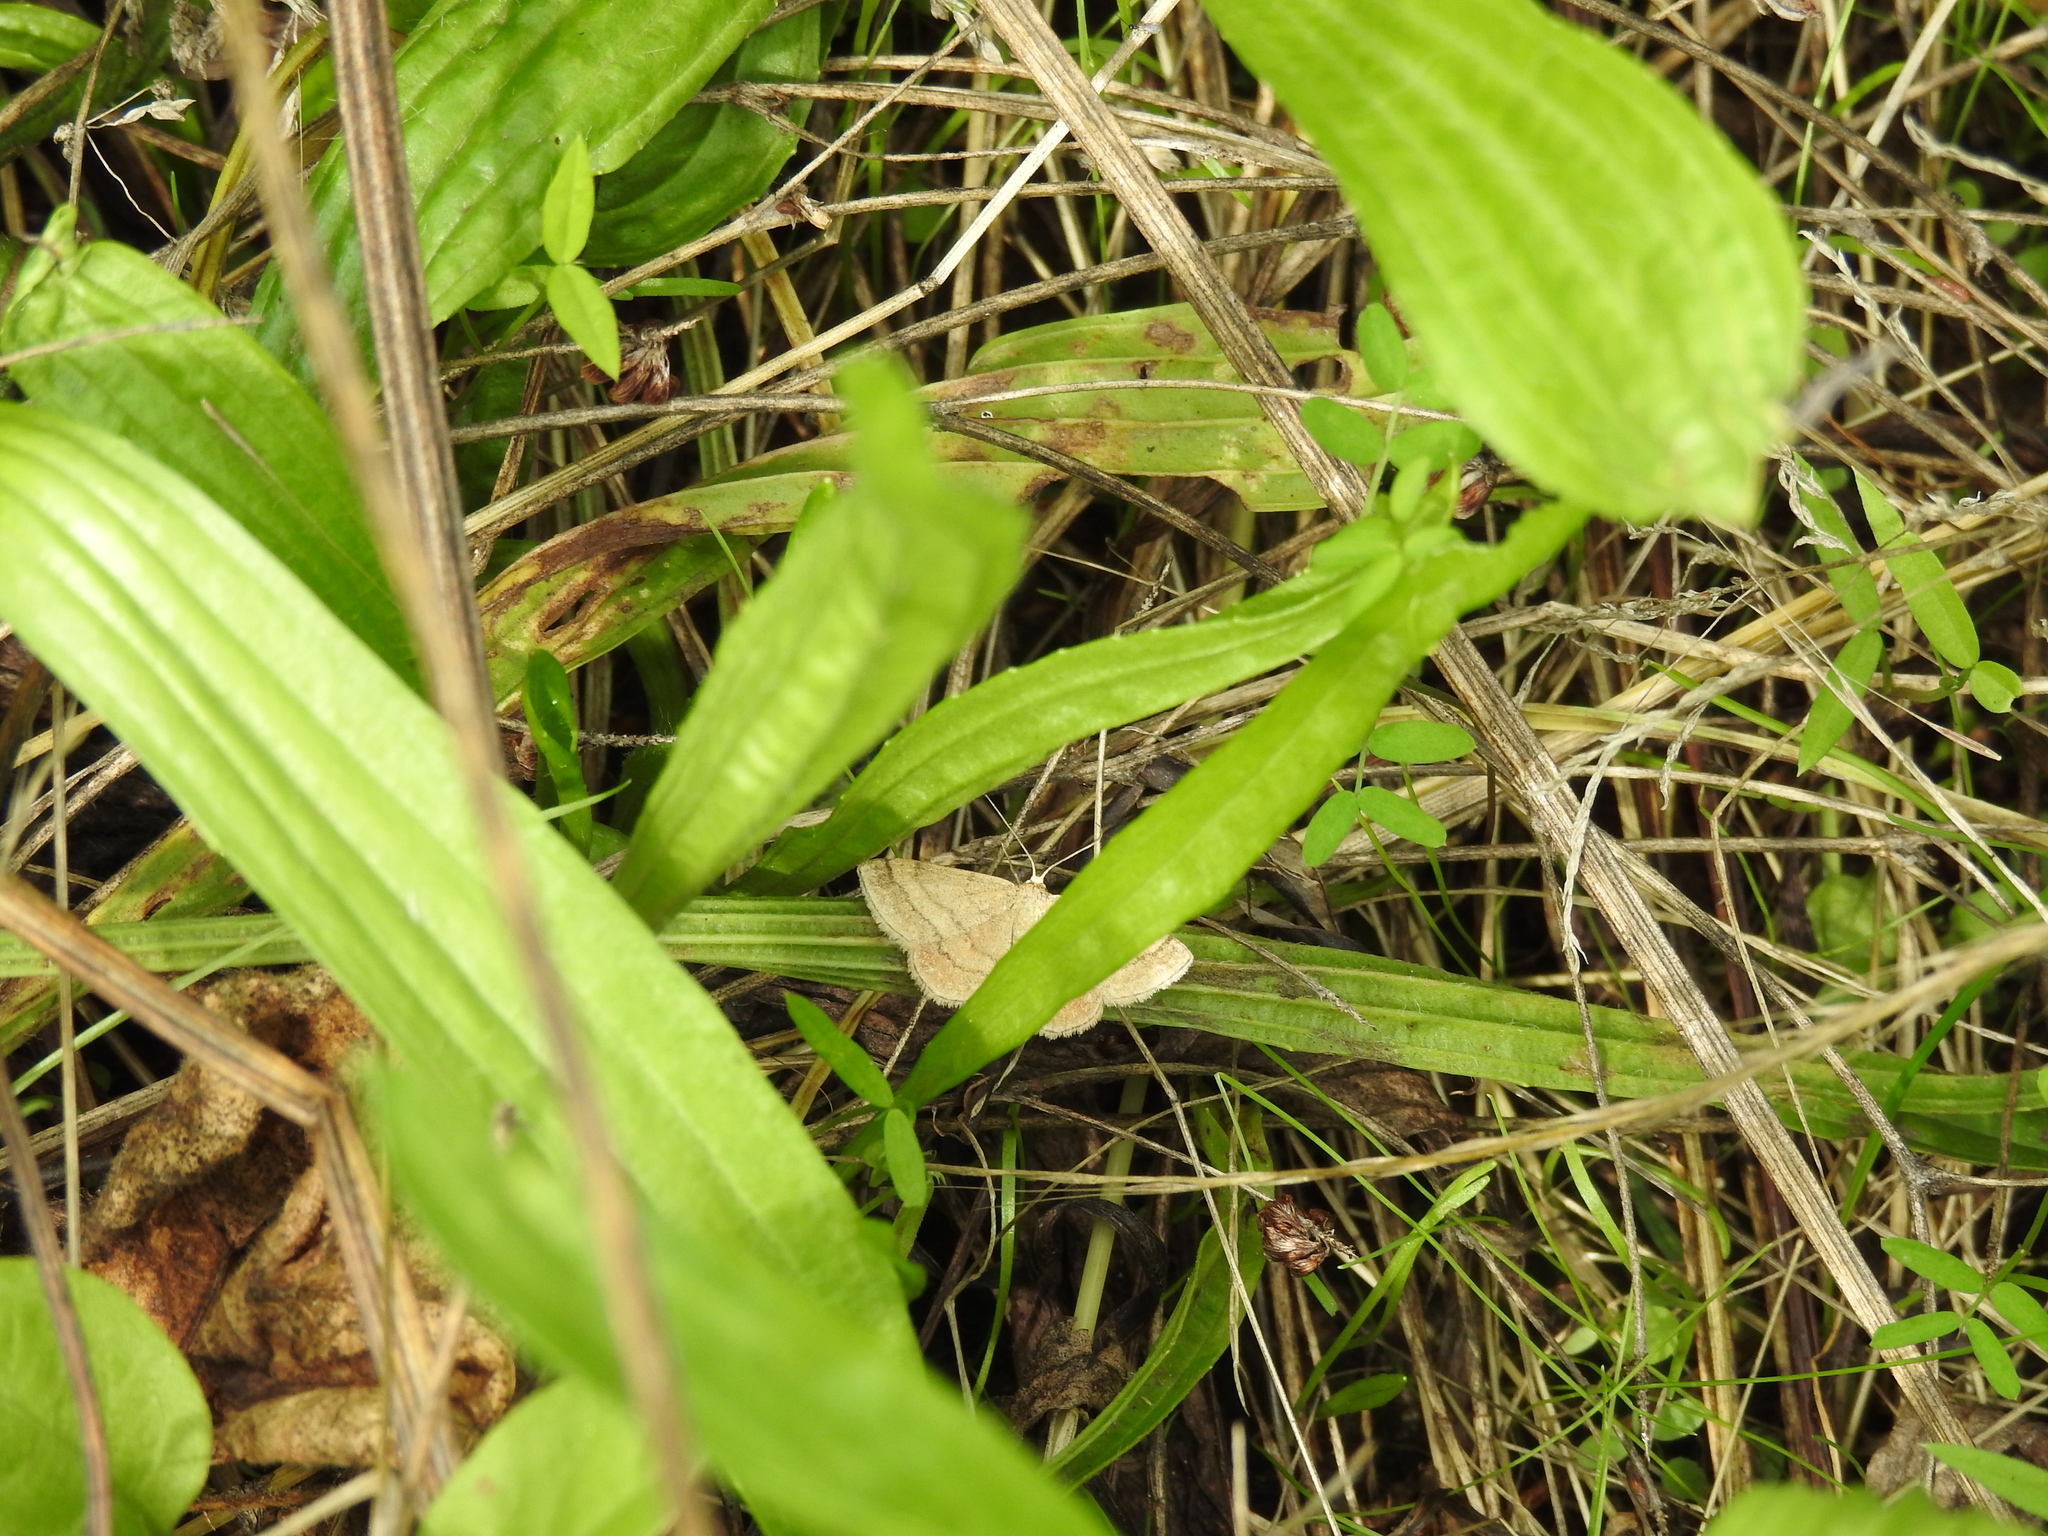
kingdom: Animalia
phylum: Arthropoda
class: Insecta
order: Lepidoptera
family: Geometridae
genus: Scopula
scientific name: Scopula rubiginata
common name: Tawny wave
